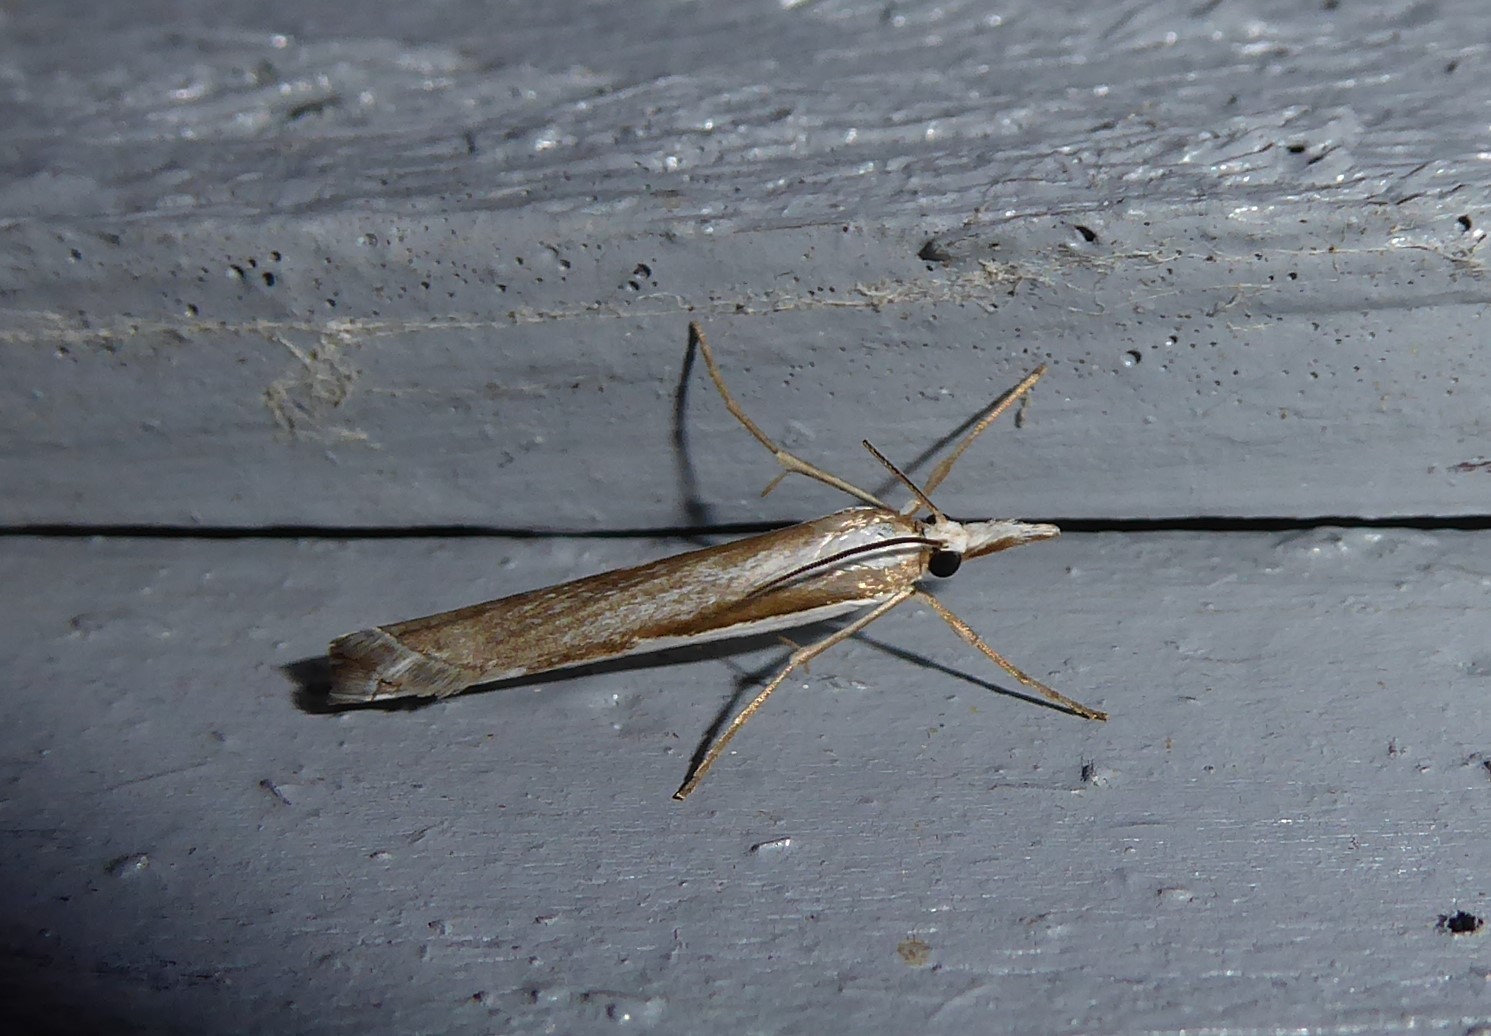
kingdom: Animalia
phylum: Arthropoda
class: Insecta
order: Lepidoptera
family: Crambidae
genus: Orocrambus
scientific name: Orocrambus vittellus
